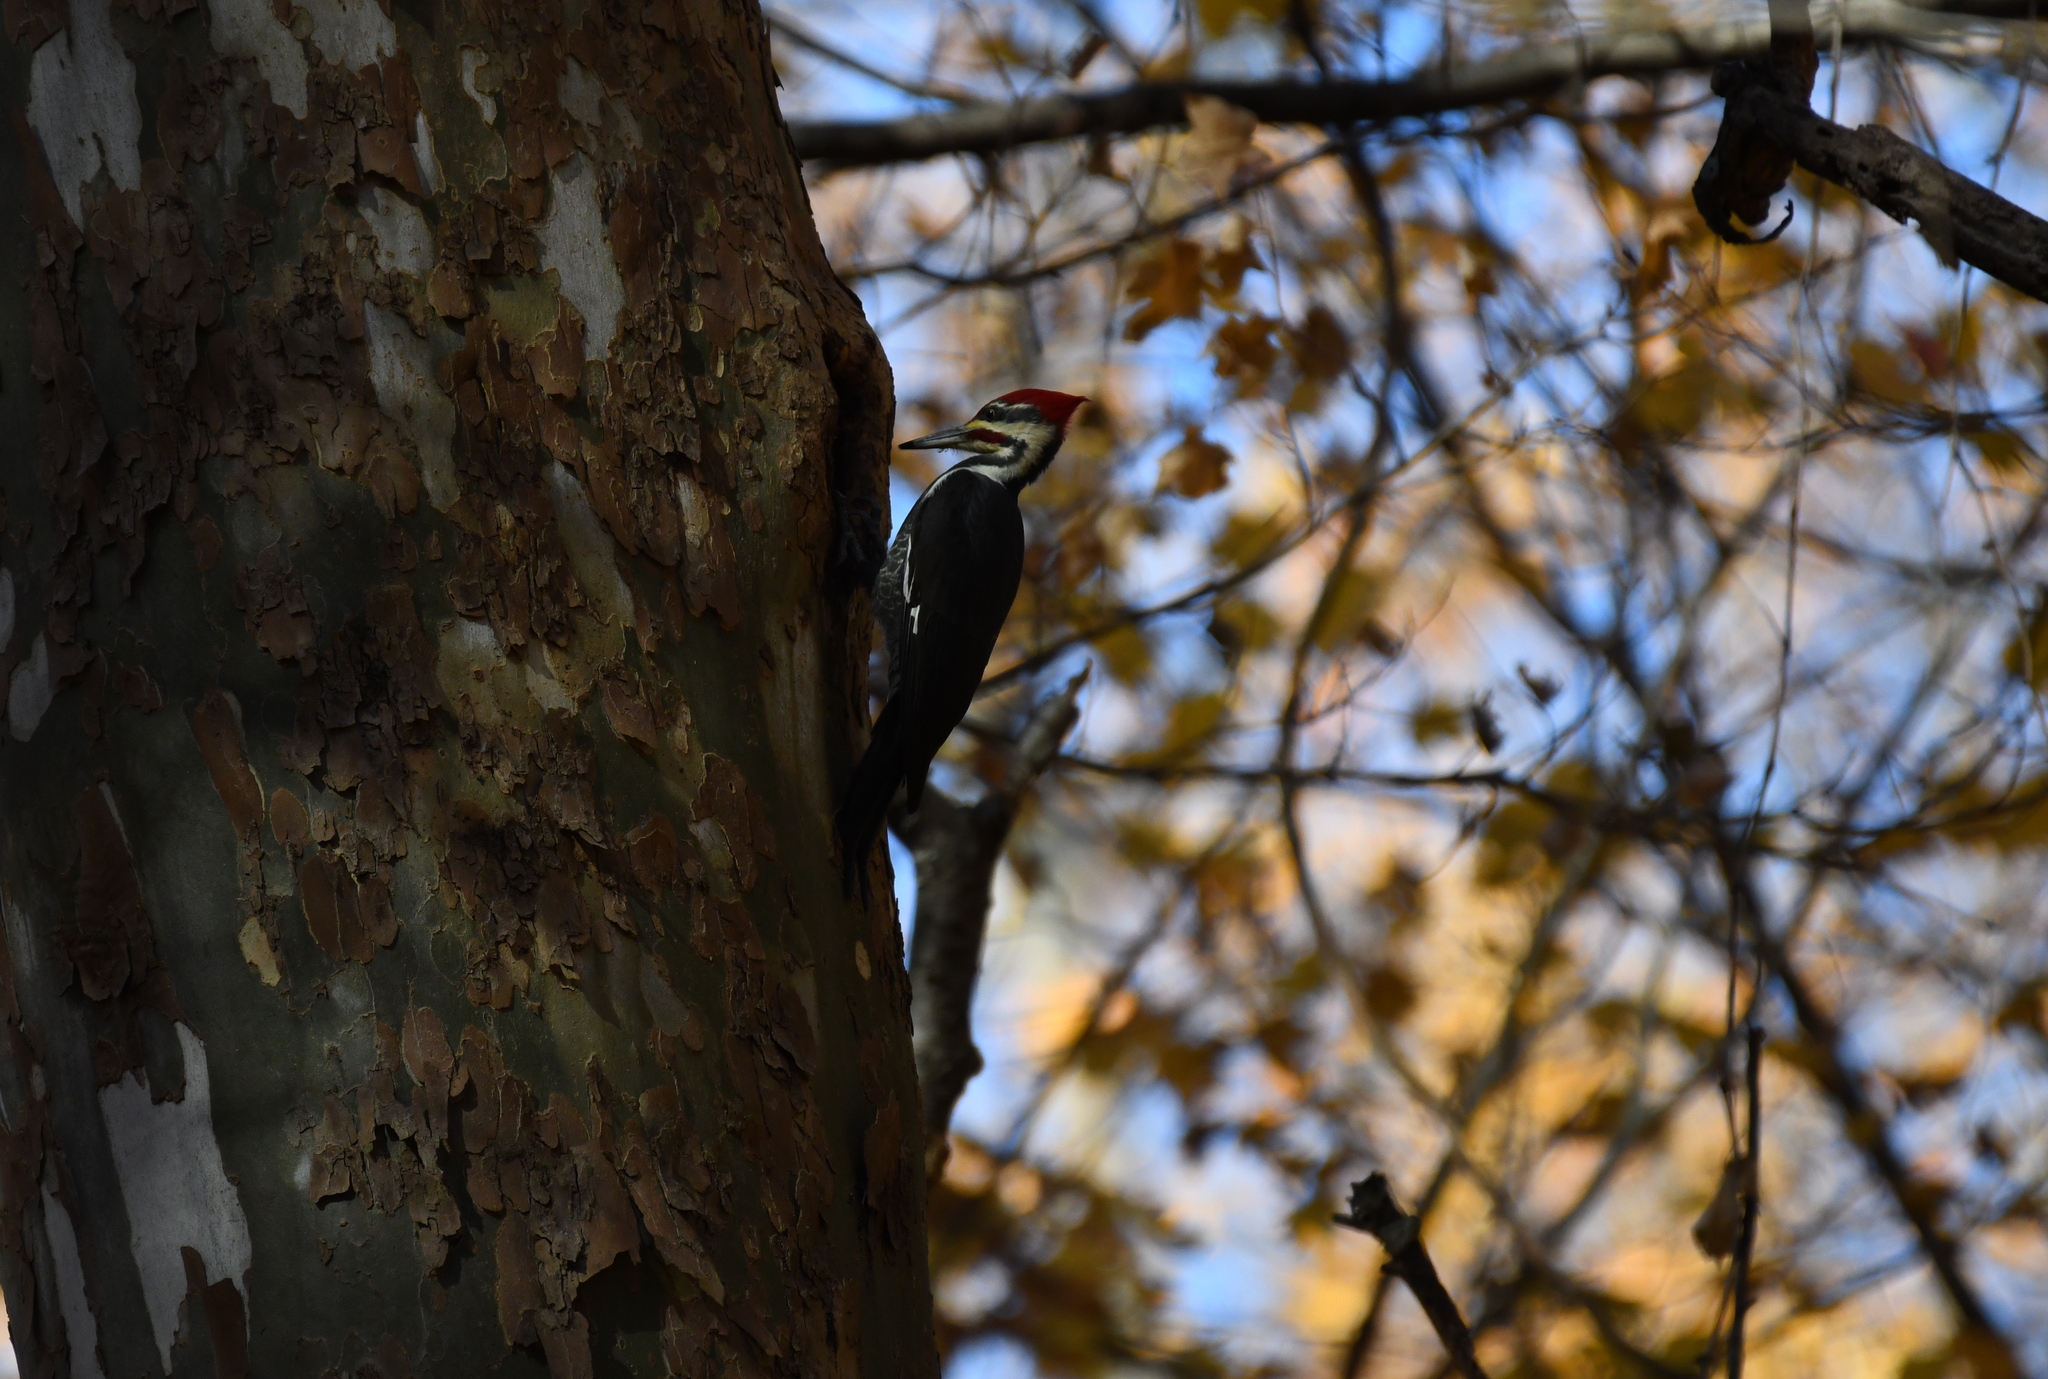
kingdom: Animalia
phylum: Chordata
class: Aves
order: Piciformes
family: Picidae
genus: Dryocopus
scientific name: Dryocopus pileatus
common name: Pileated woodpecker
